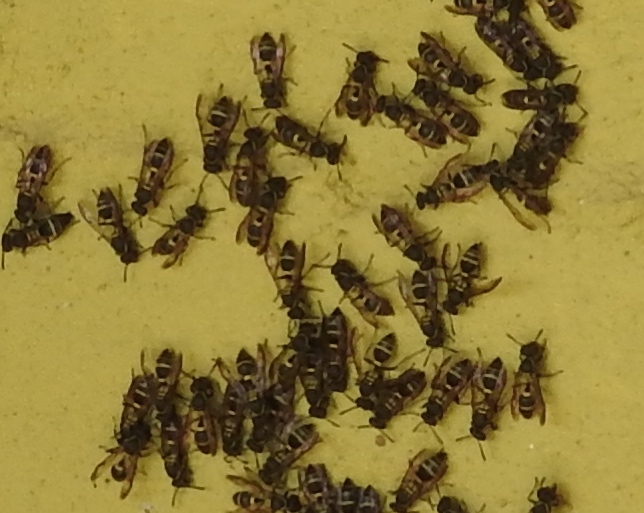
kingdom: Animalia
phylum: Arthropoda
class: Insecta
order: Hymenoptera
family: Vespidae
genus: Myrapetra
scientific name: Myrapetra
